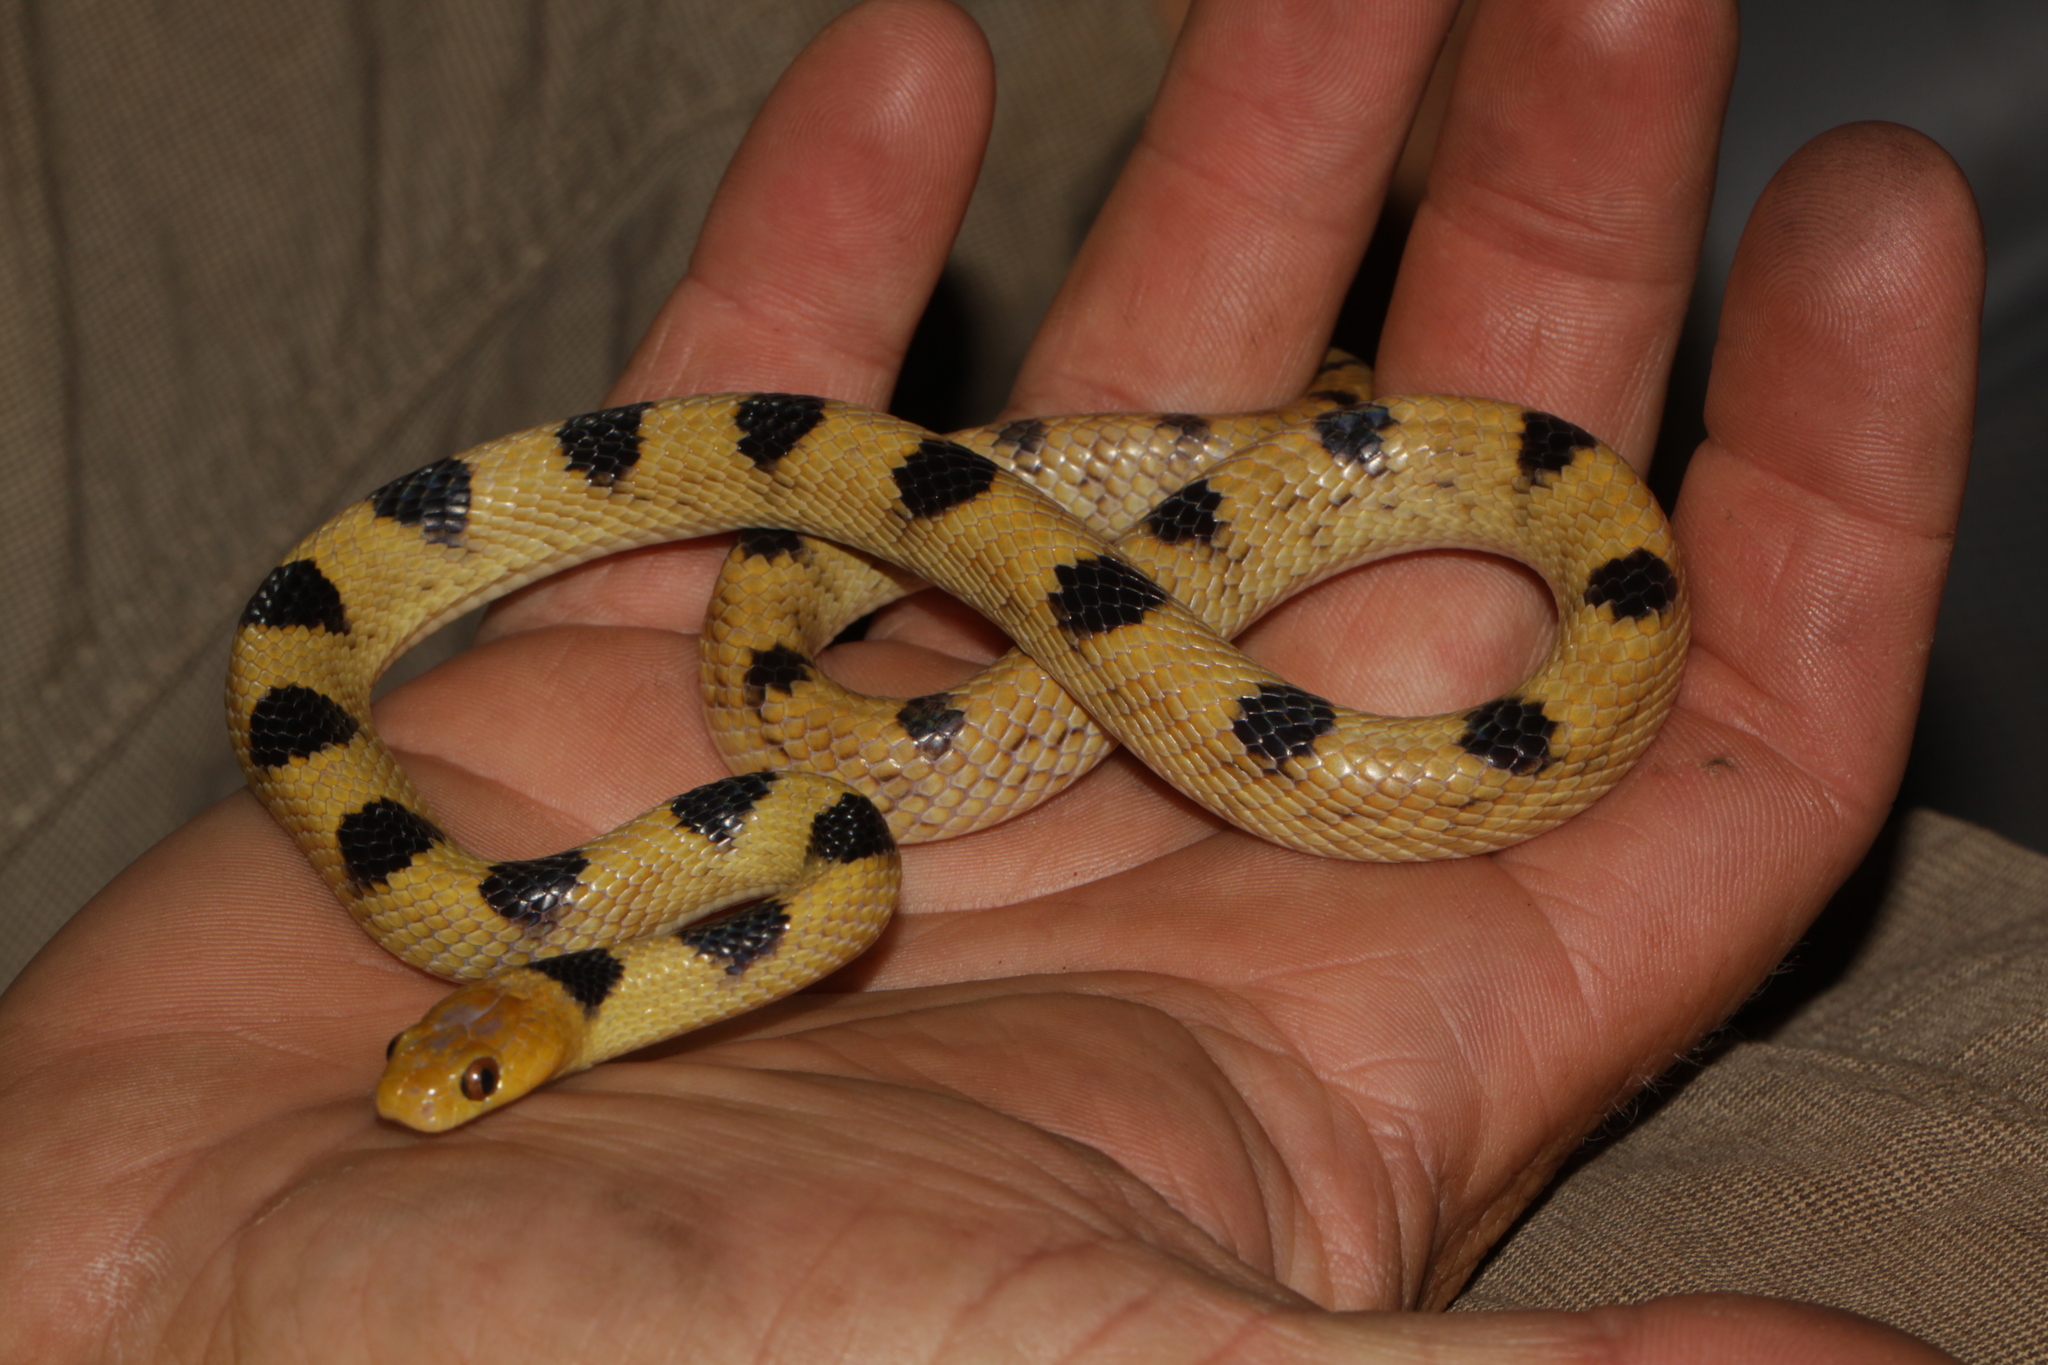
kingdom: Animalia
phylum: Chordata
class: Squamata
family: Colubridae
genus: Telescopus
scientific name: Telescopus beetzi
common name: Karoo tiger snake
